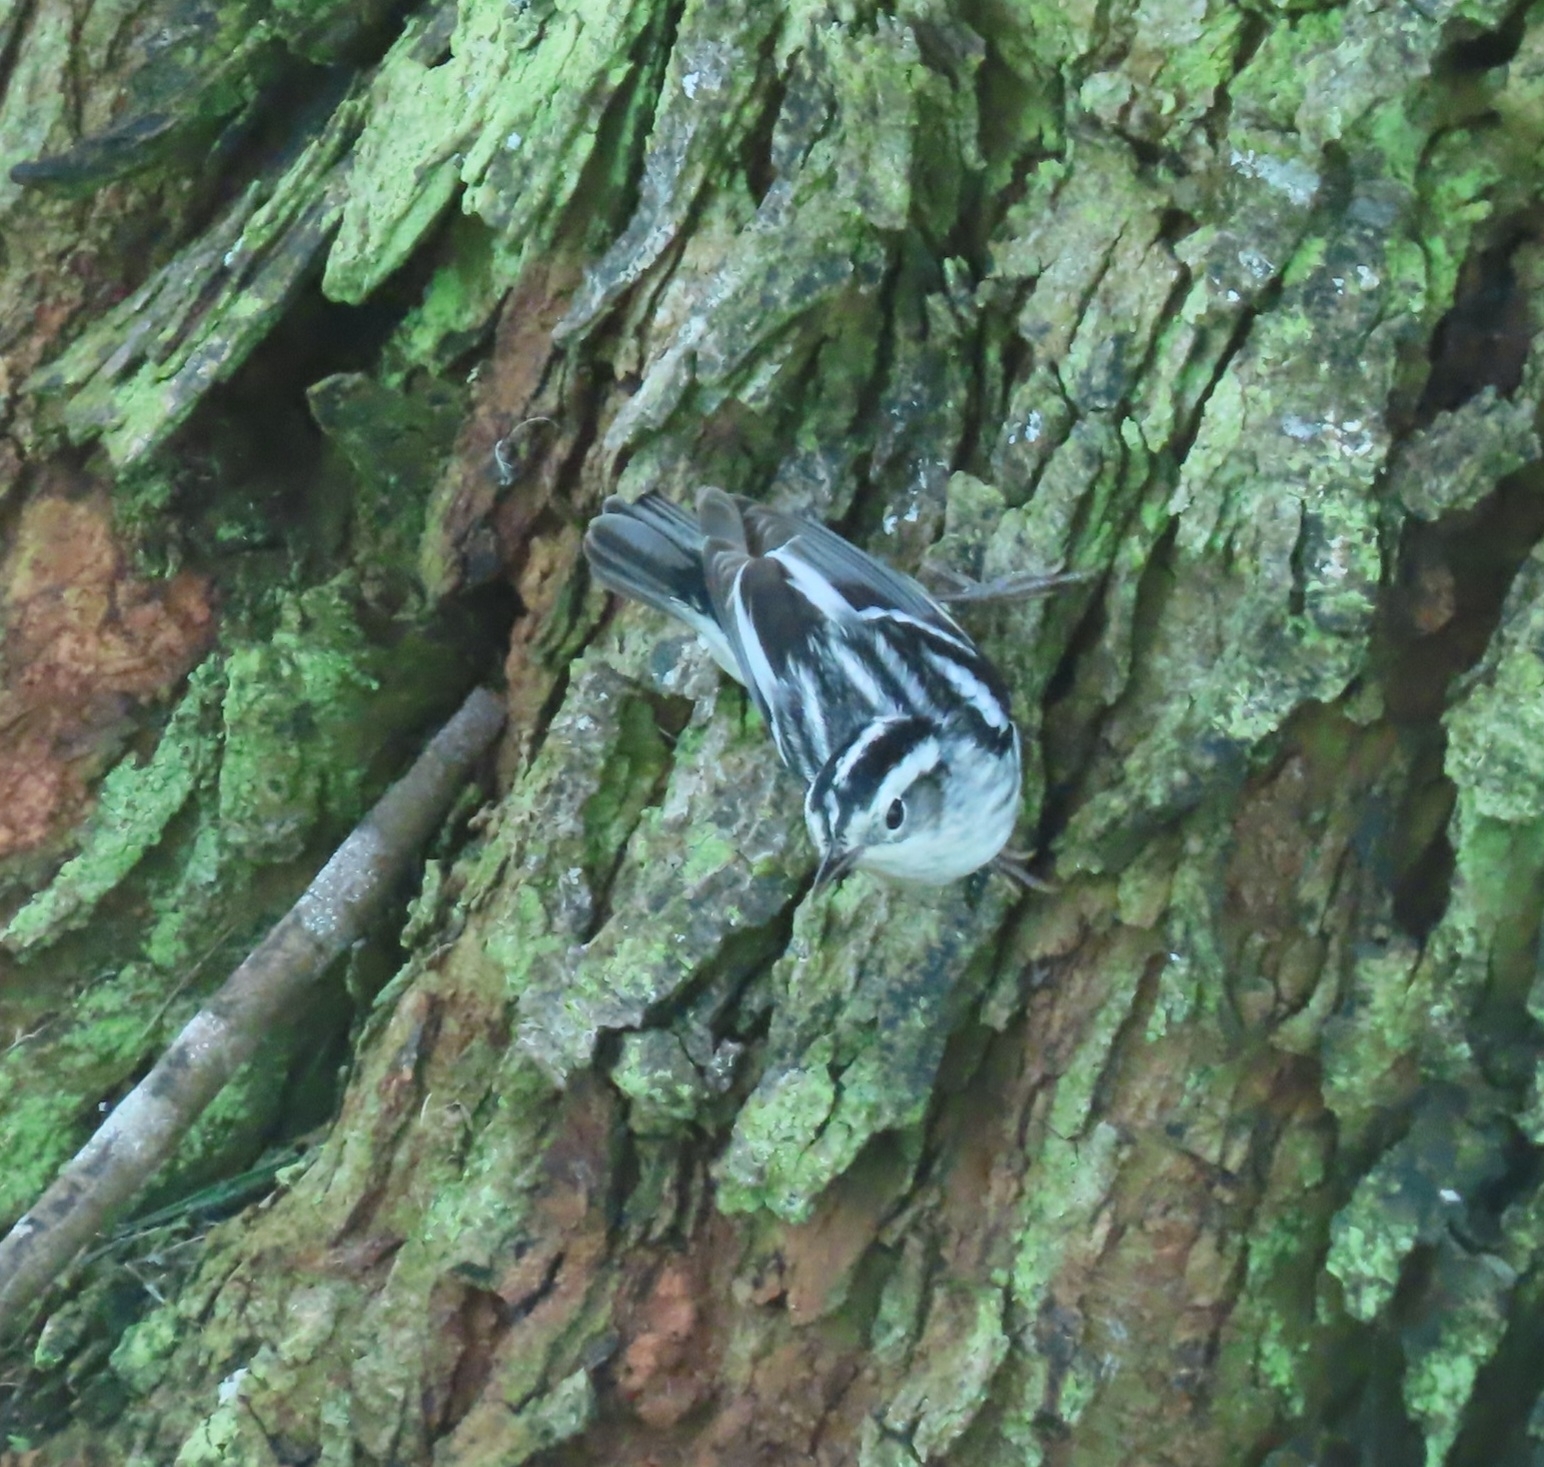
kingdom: Animalia
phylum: Chordata
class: Aves
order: Passeriformes
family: Parulidae
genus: Mniotilta
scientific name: Mniotilta varia
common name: Black-and-white warbler
